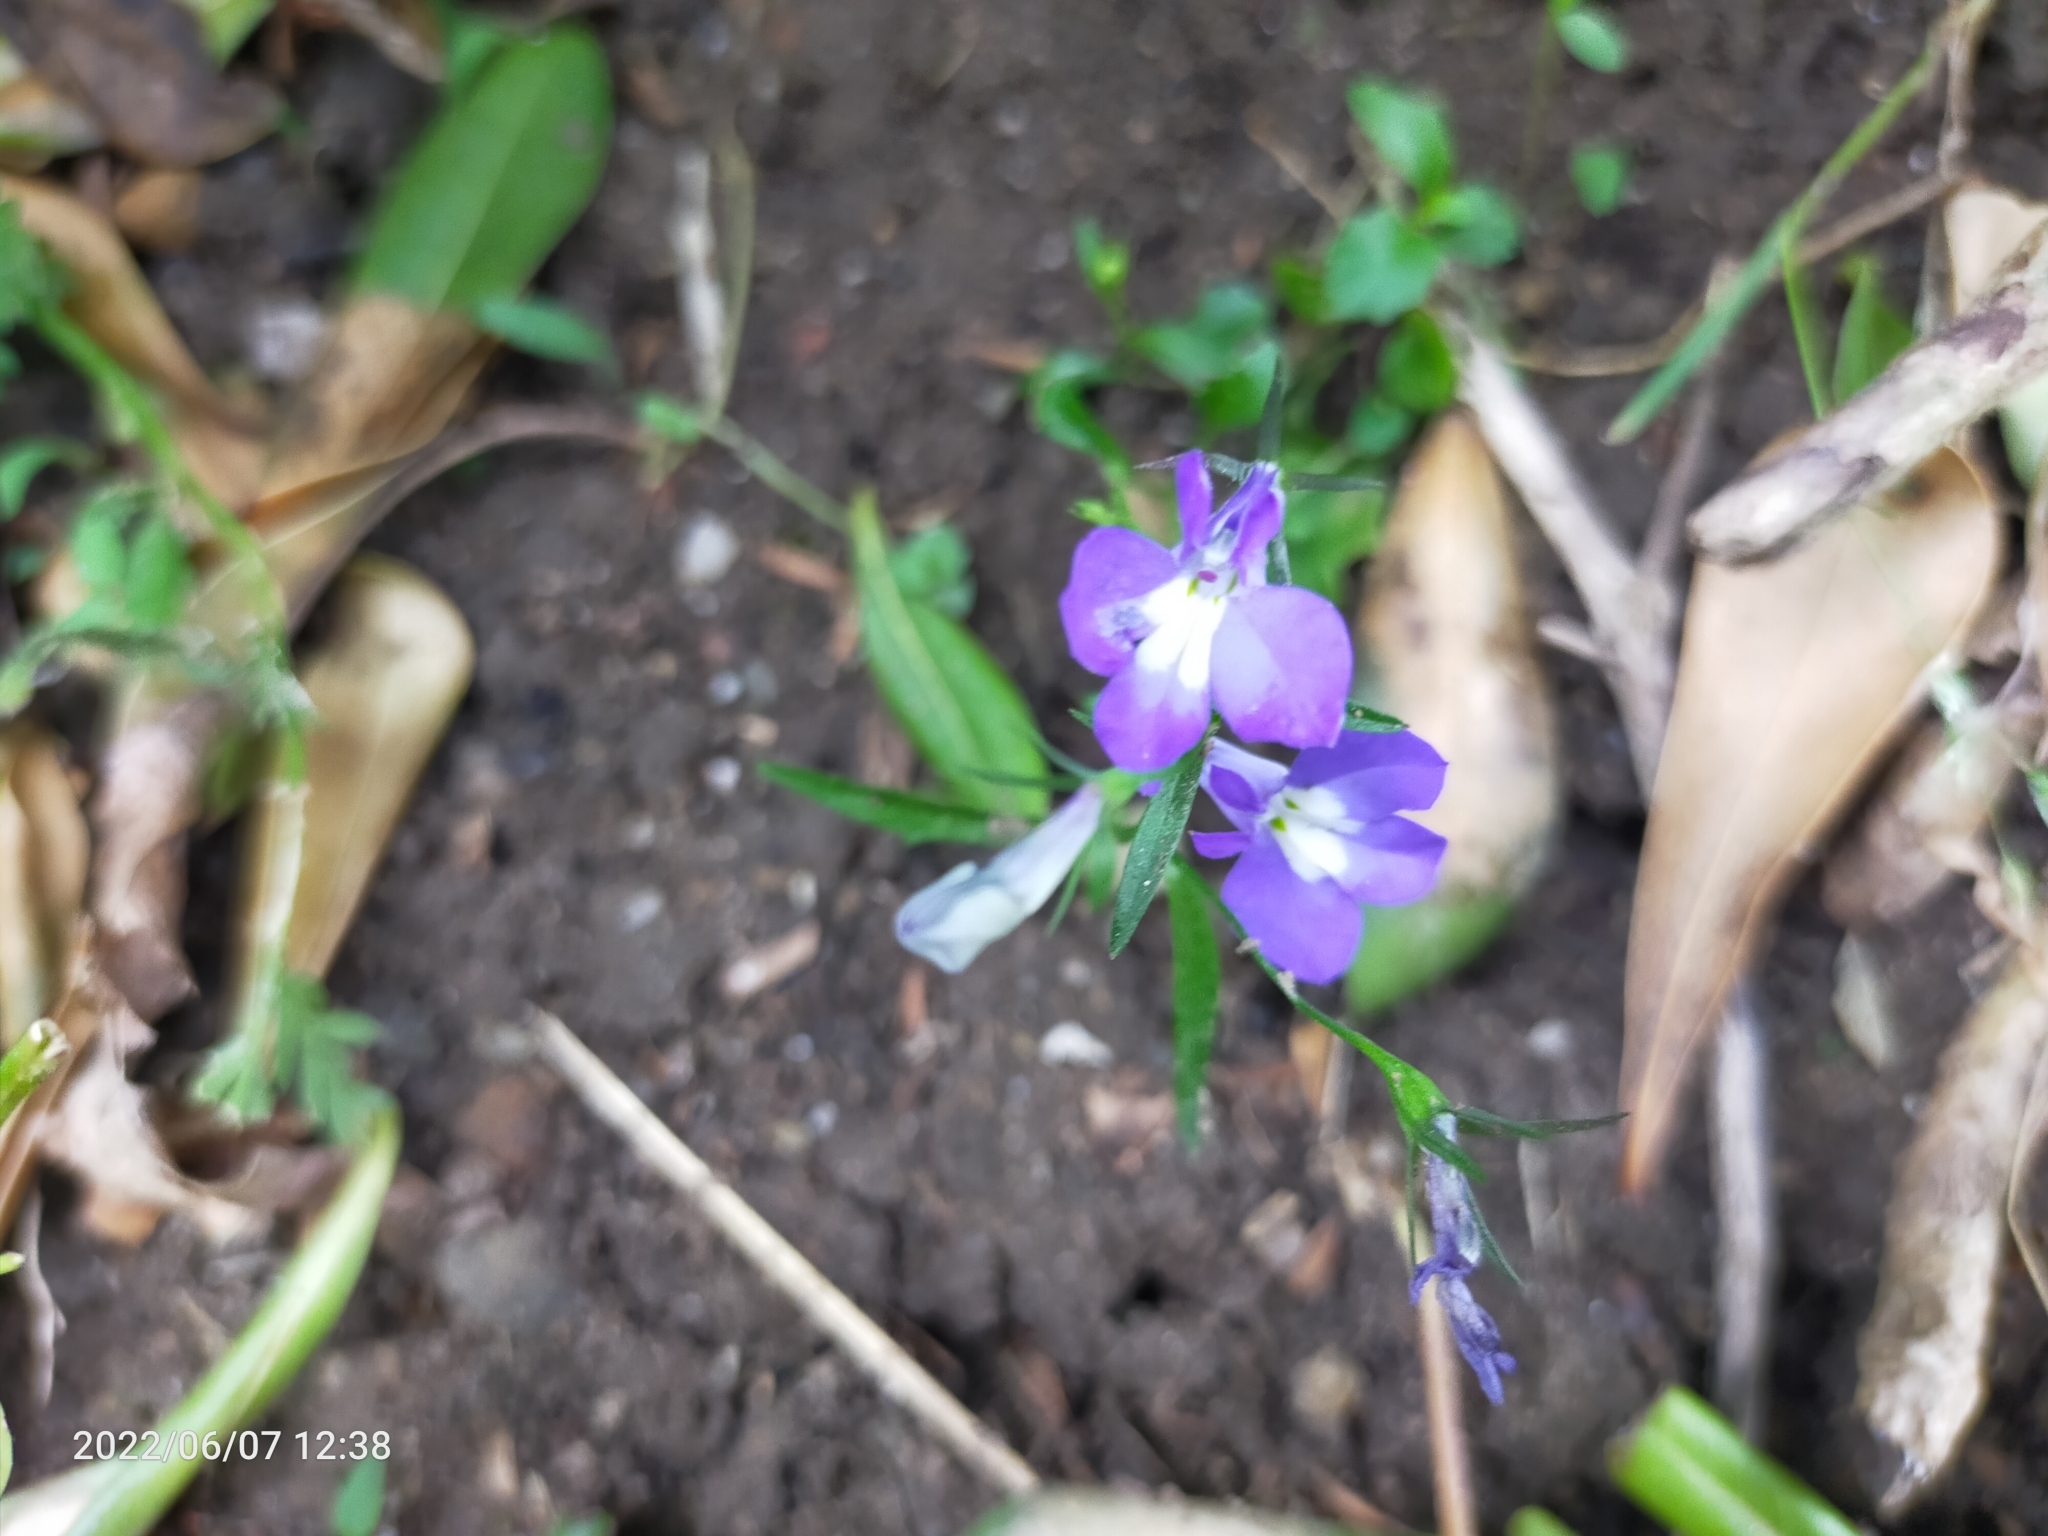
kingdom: Plantae
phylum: Tracheophyta
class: Magnoliopsida
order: Lamiales
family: Plantaginaceae
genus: Linaria
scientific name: Linaria
